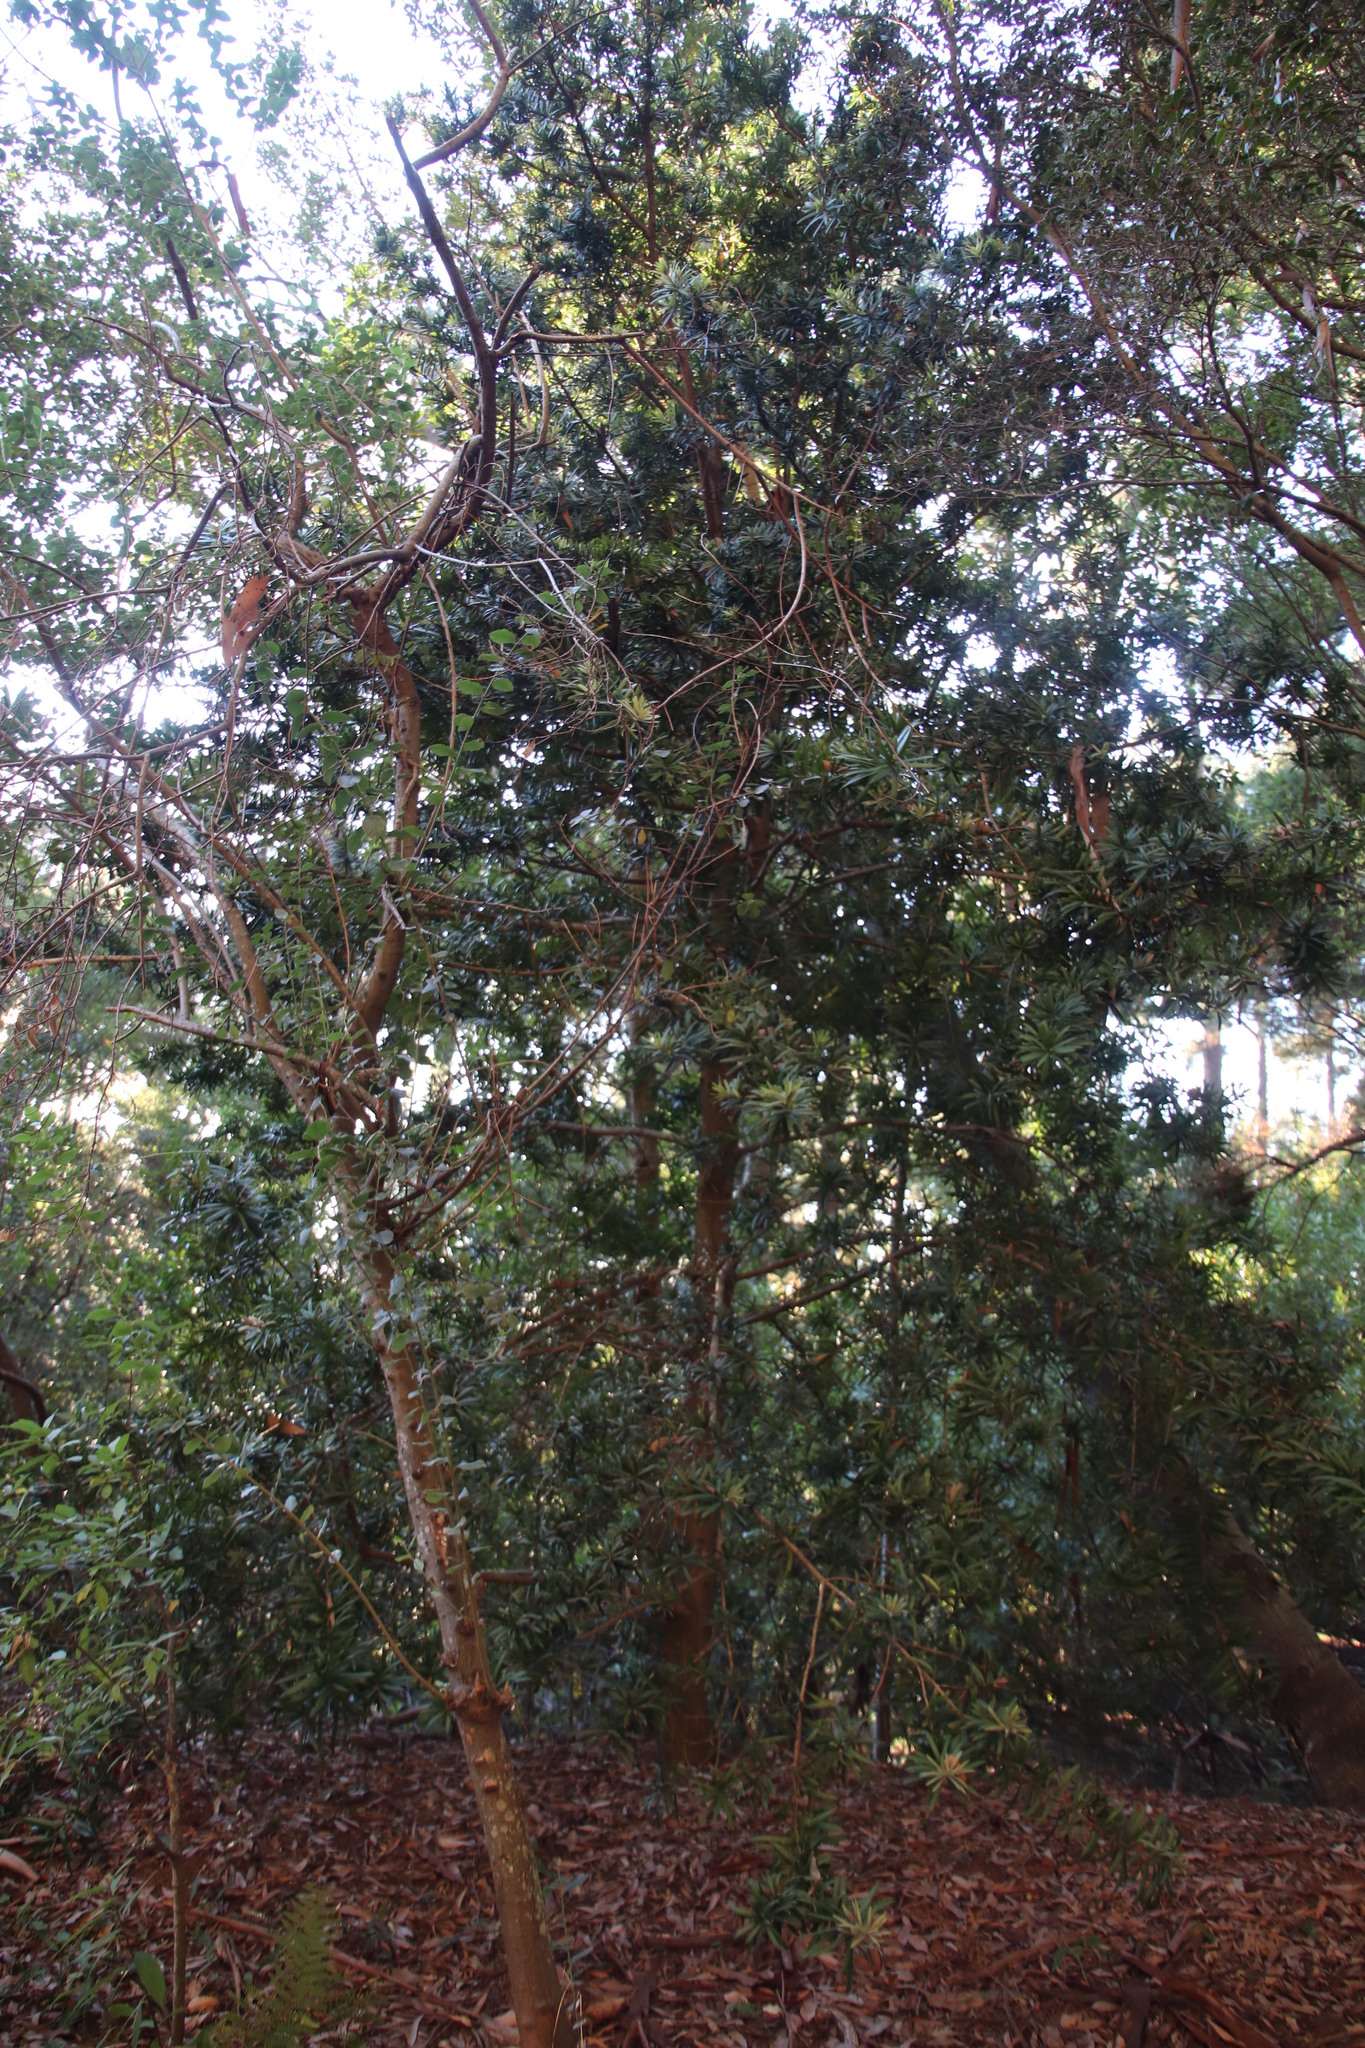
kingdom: Plantae
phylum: Tracheophyta
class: Pinopsida
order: Pinales
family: Podocarpaceae
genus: Podocarpus
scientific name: Podocarpus latifolius
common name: True yellowwood
